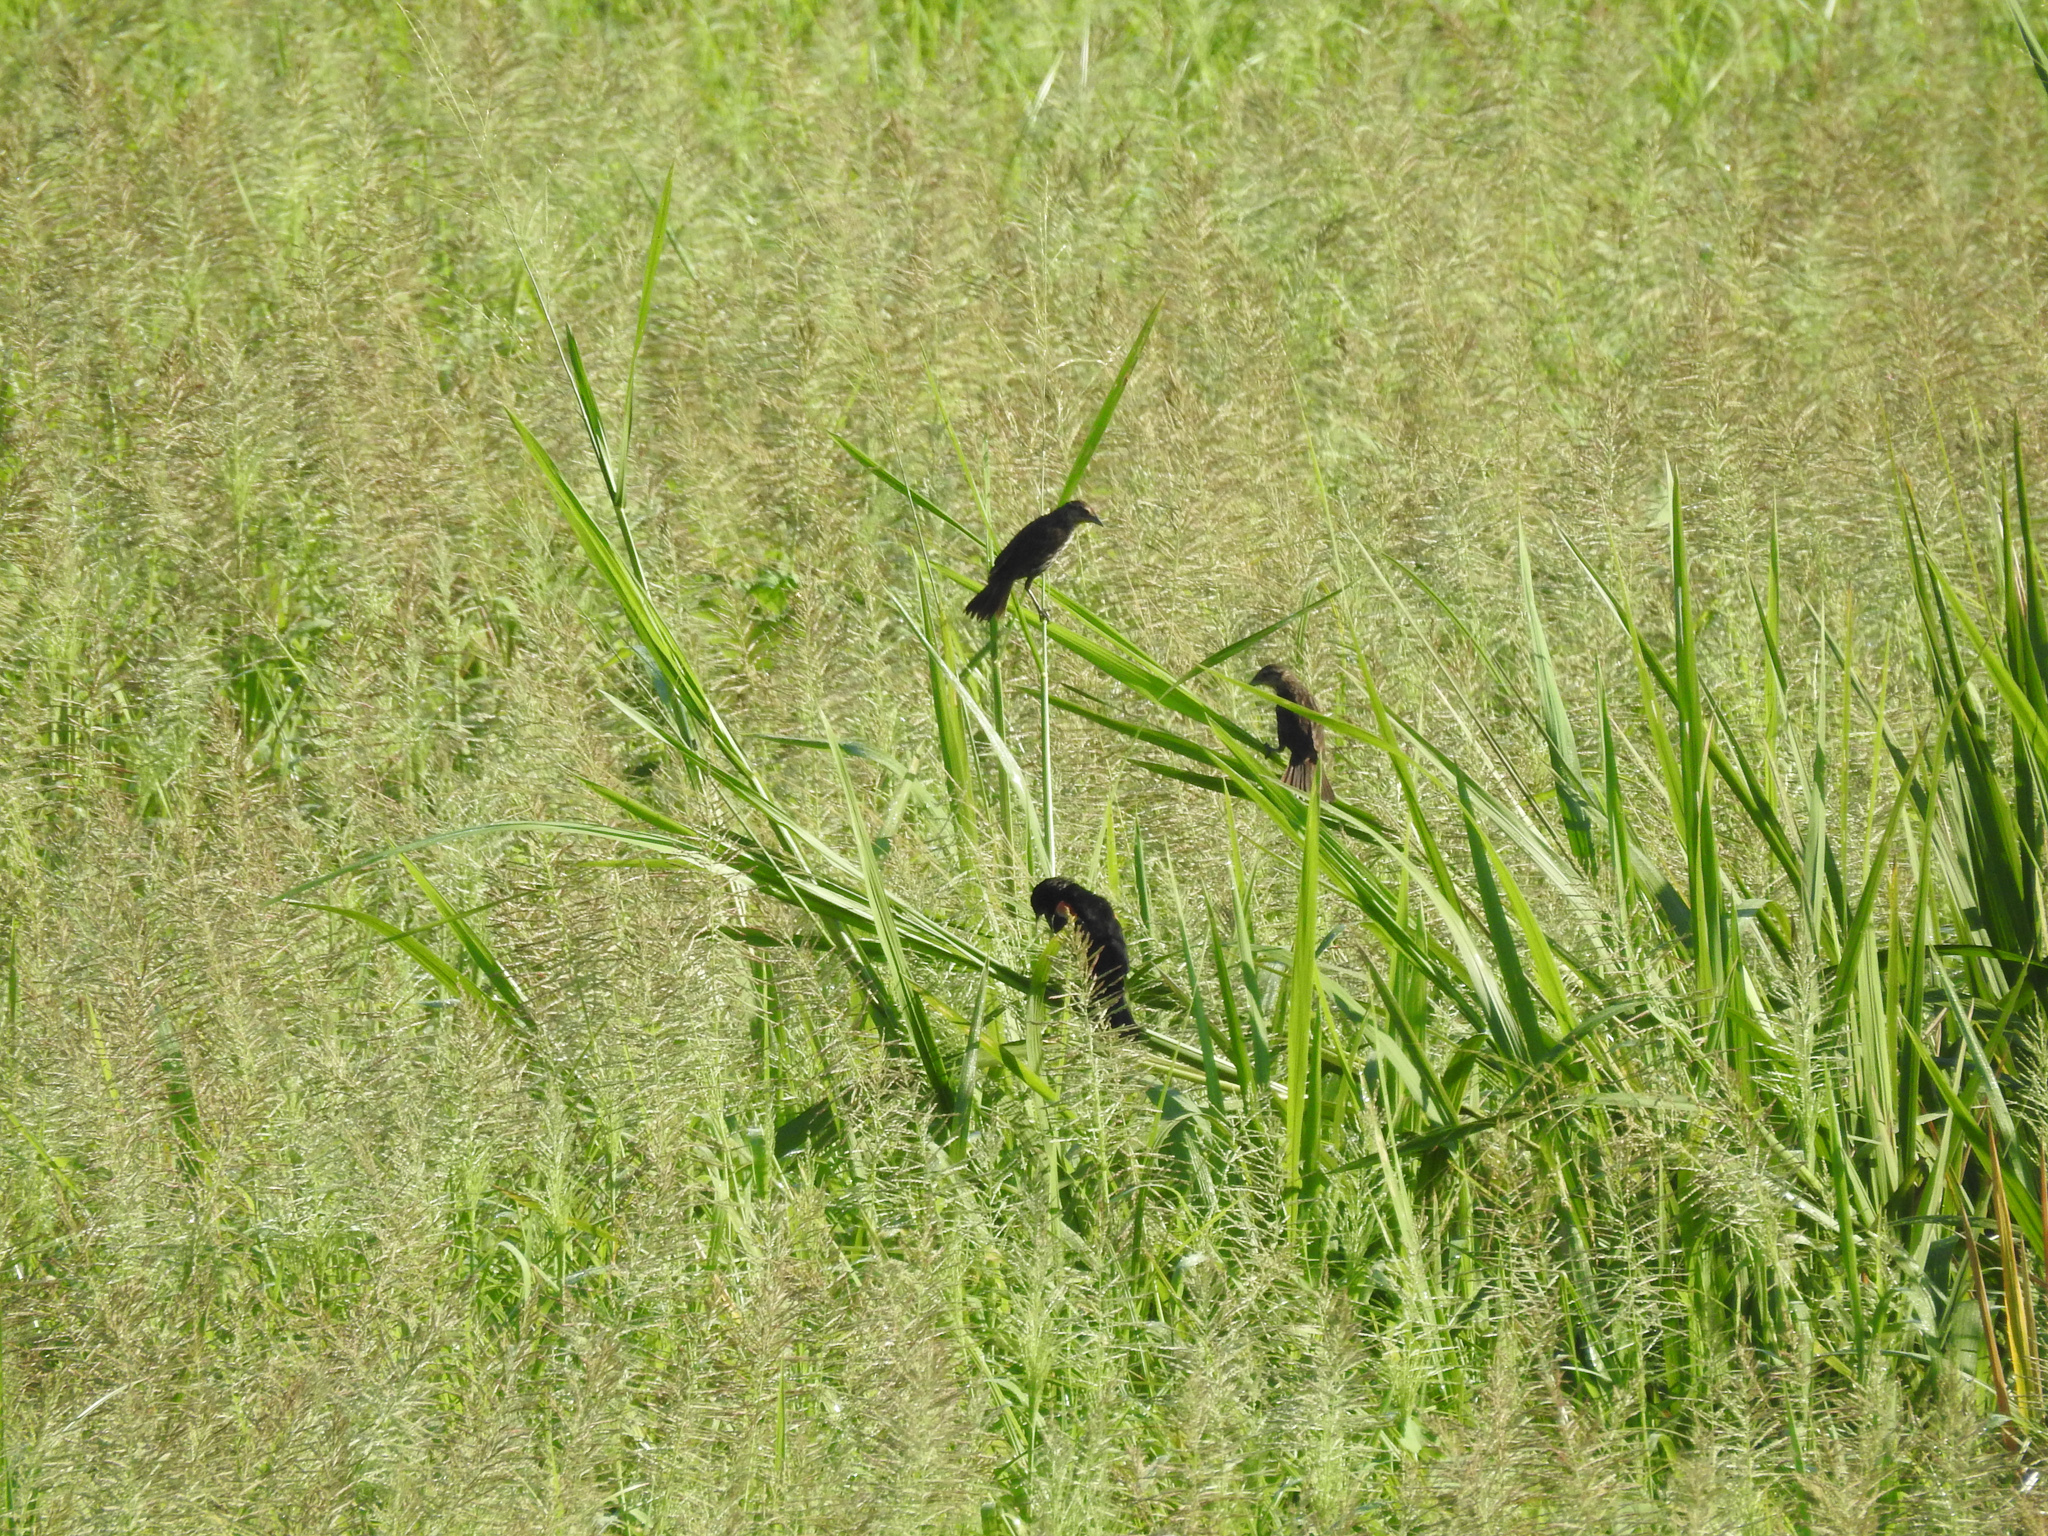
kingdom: Animalia
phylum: Chordata
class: Aves
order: Passeriformes
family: Icteridae
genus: Agelaius
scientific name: Agelaius phoeniceus
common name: Red-winged blackbird
